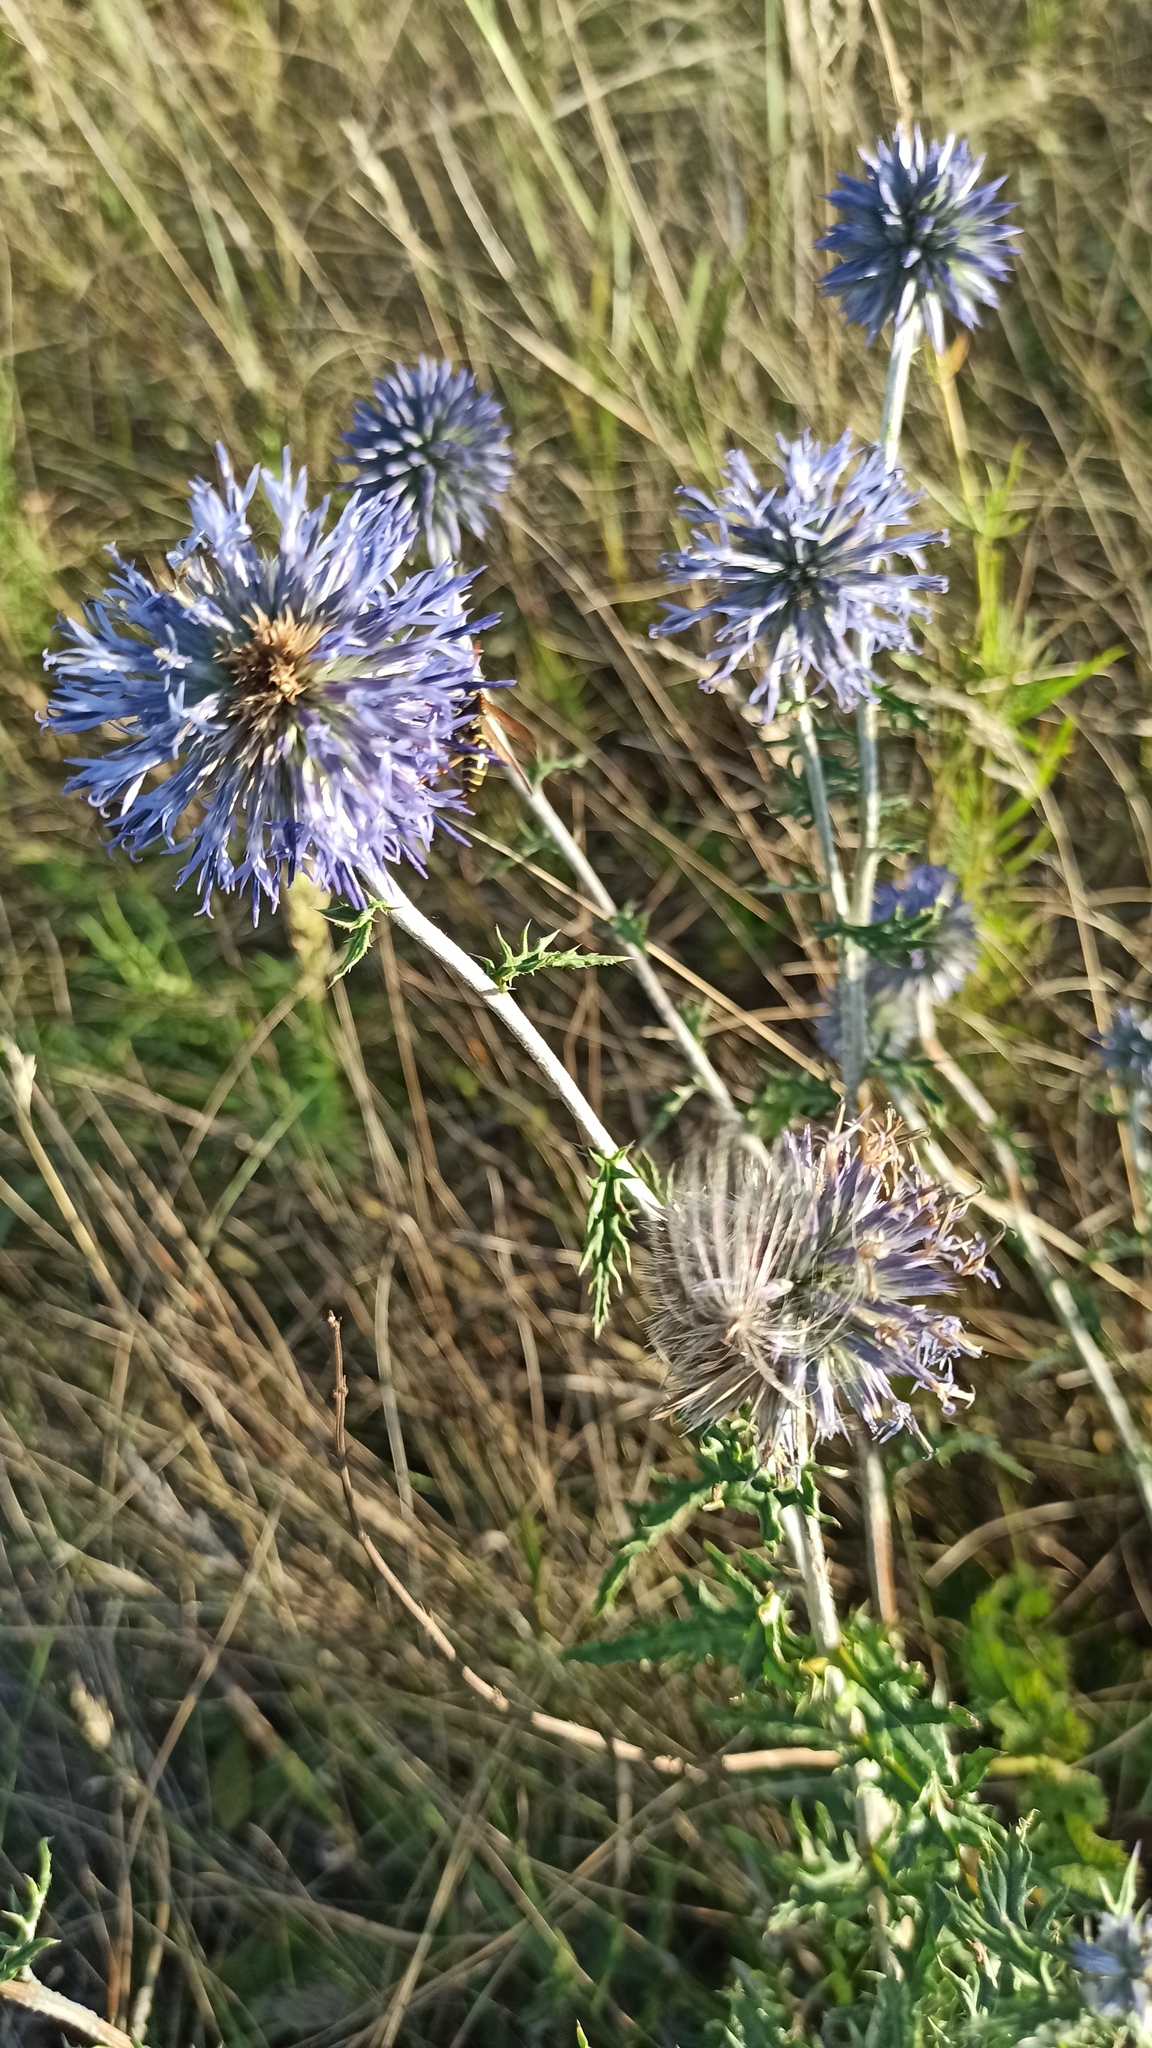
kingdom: Plantae
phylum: Tracheophyta
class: Magnoliopsida
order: Asterales
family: Asteraceae
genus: Echinops
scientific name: Echinops ritro
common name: Globe thistle
